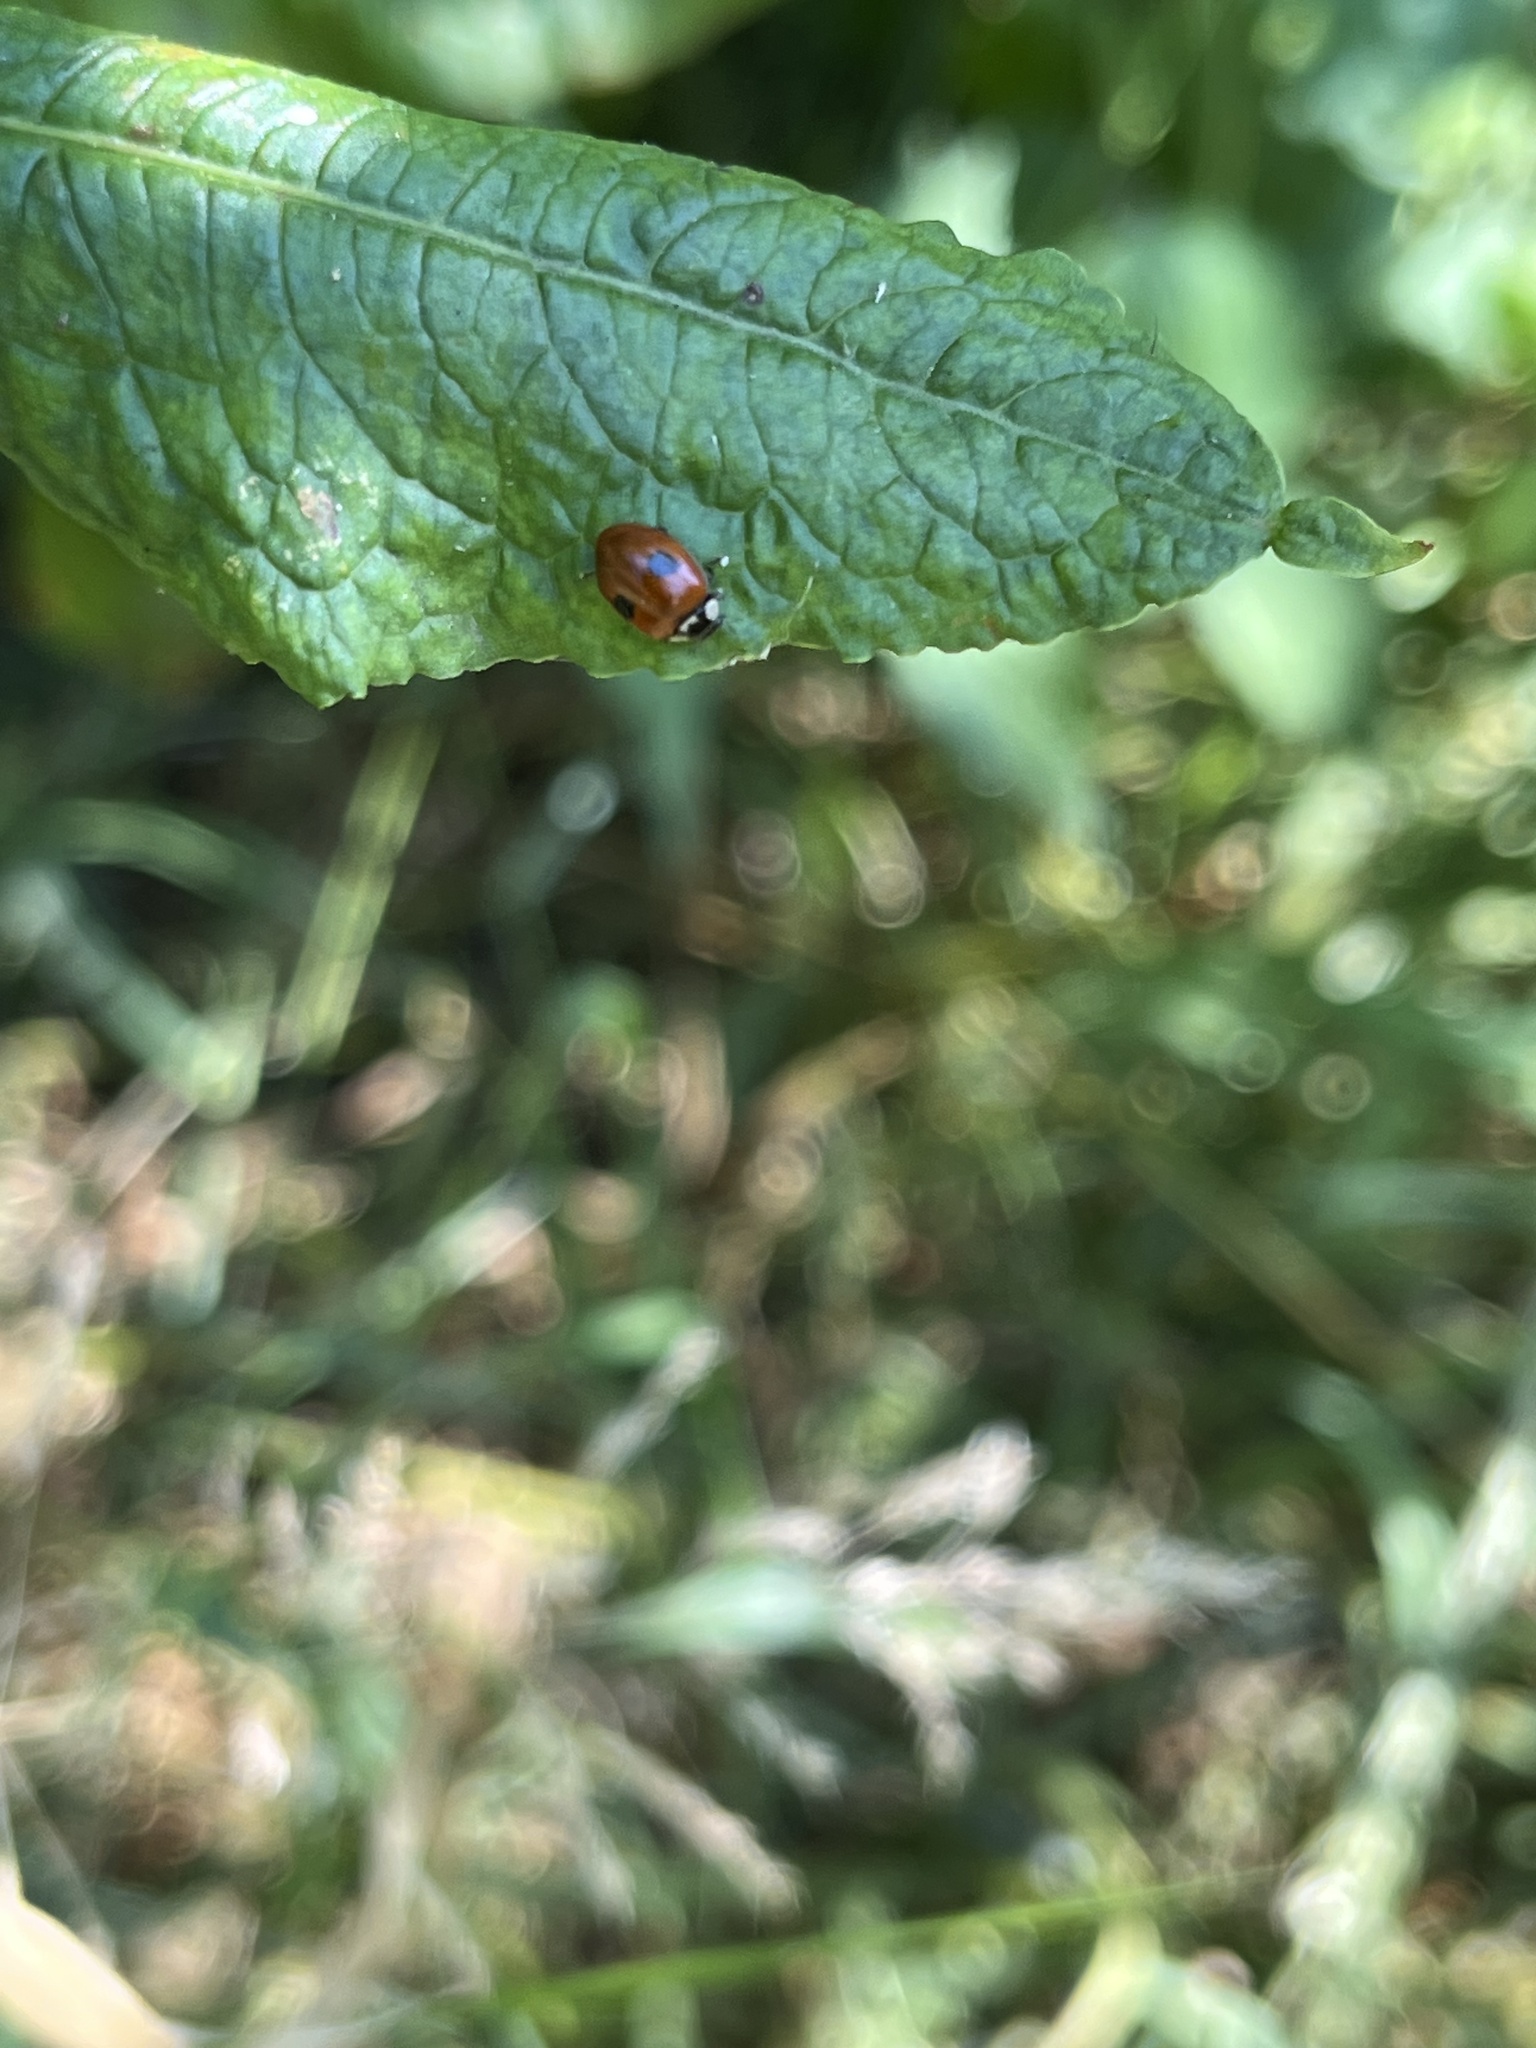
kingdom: Animalia
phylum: Arthropoda
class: Insecta
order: Coleoptera
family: Coccinellidae
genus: Adalia
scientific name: Adalia bipunctata
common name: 2-spot ladybird
